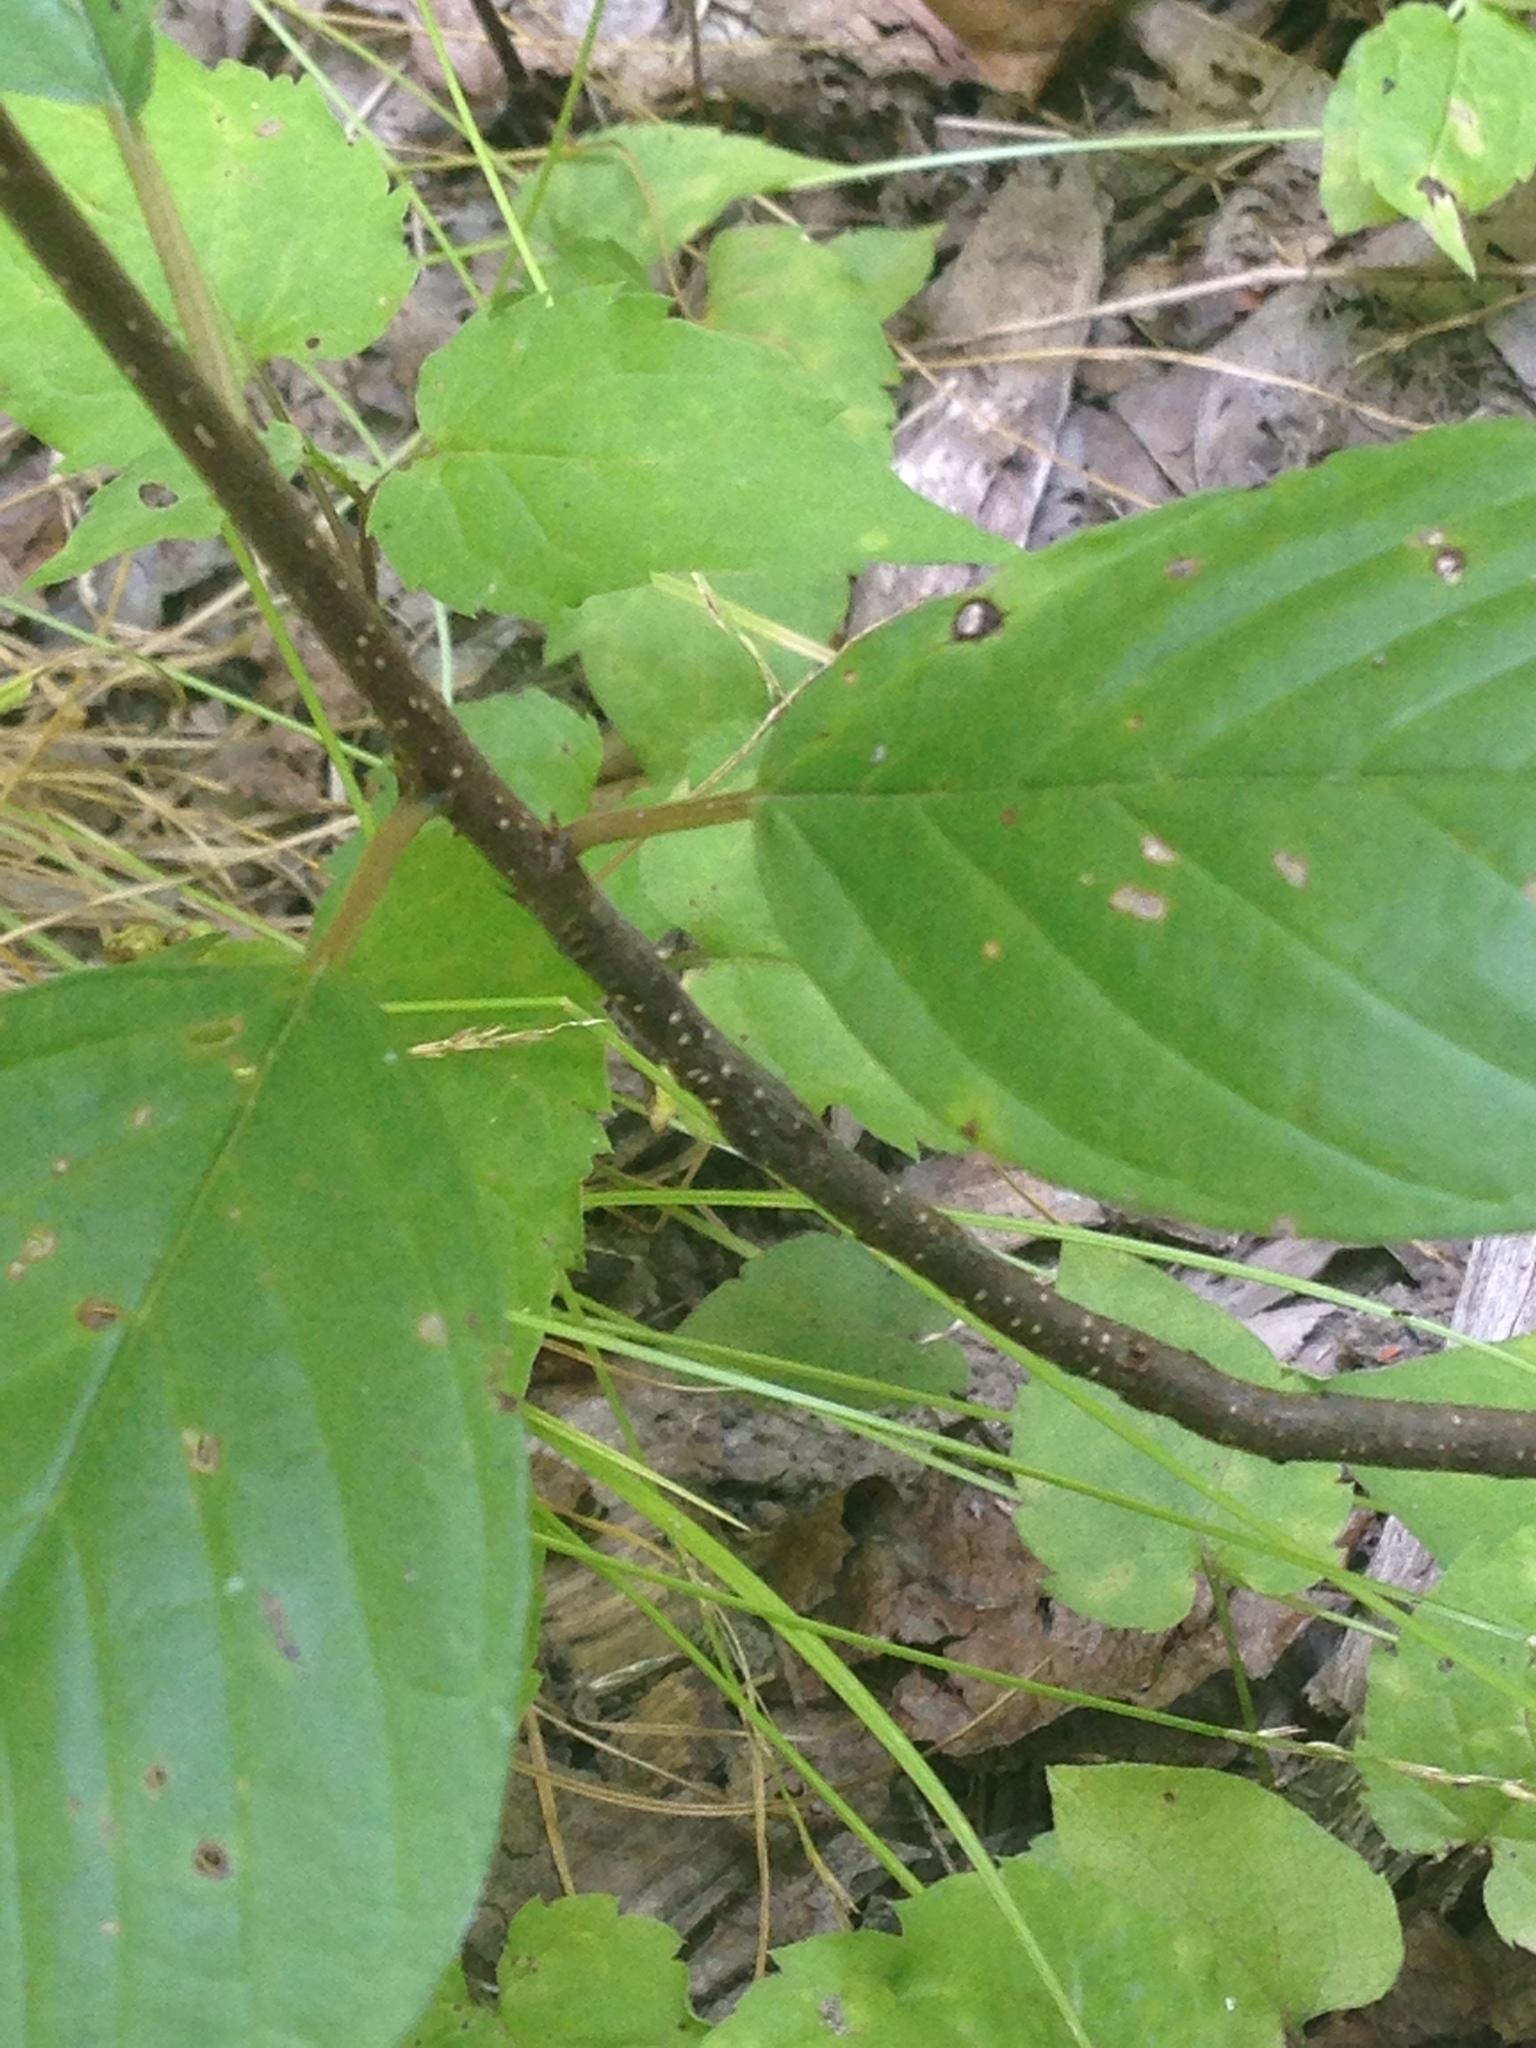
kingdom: Plantae
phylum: Tracheophyta
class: Magnoliopsida
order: Rosales
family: Rhamnaceae
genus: Frangula
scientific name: Frangula alnus
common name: Alder buckthorn
